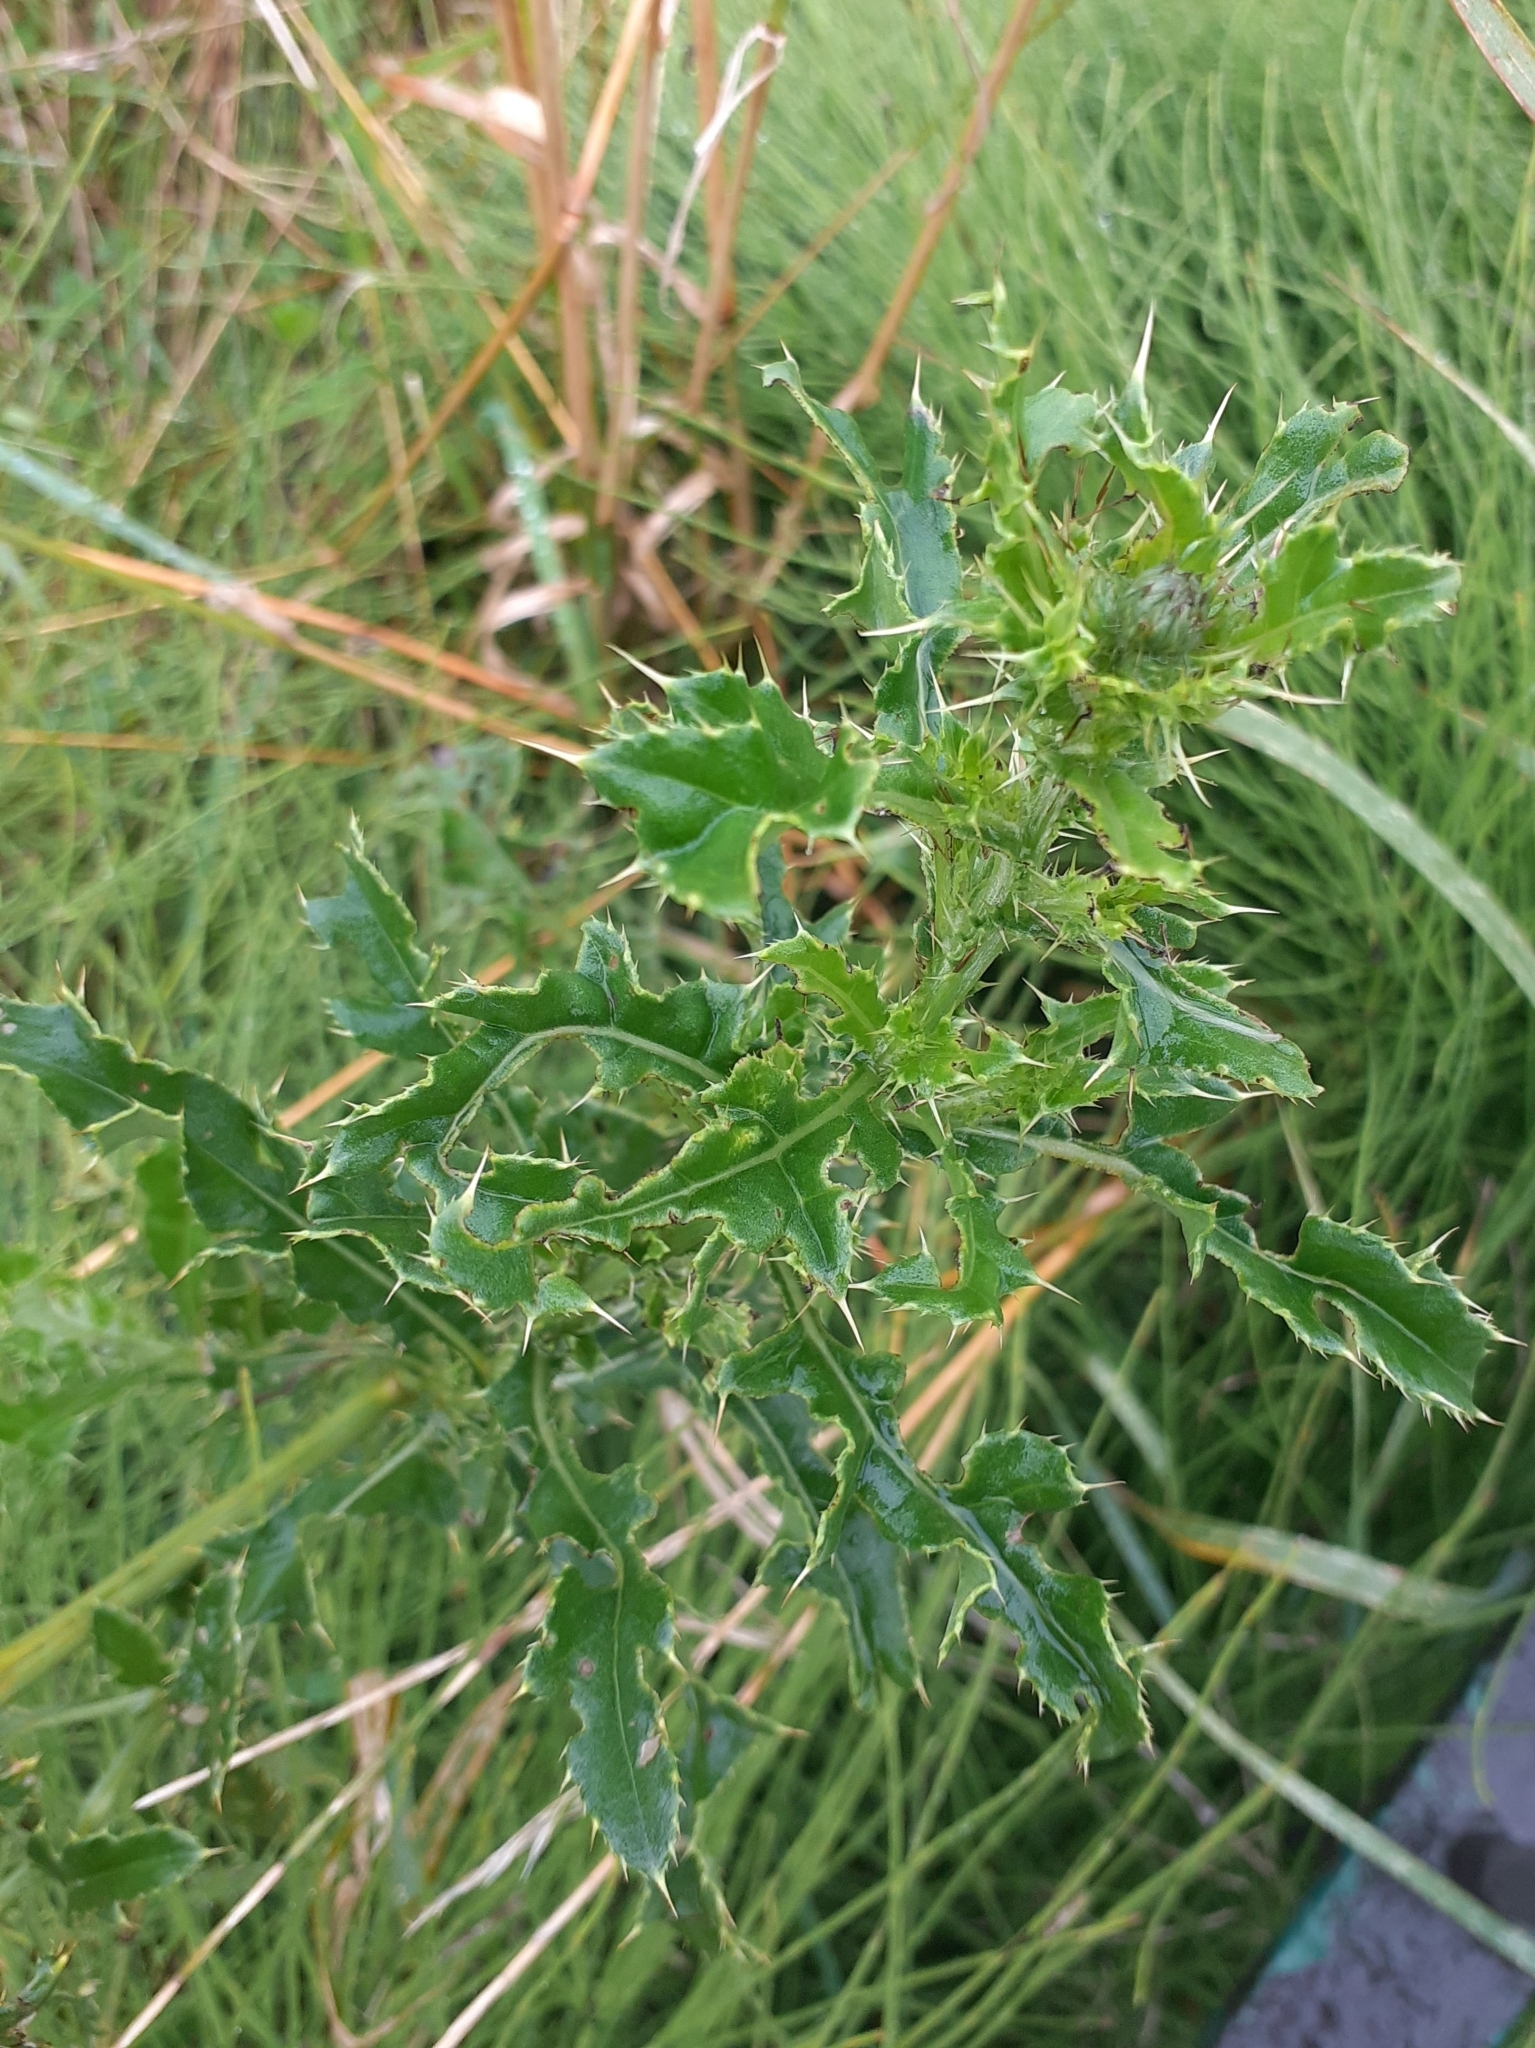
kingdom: Plantae
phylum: Tracheophyta
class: Magnoliopsida
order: Asterales
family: Asteraceae
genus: Cirsium
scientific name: Cirsium arvense
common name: Creeping thistle
